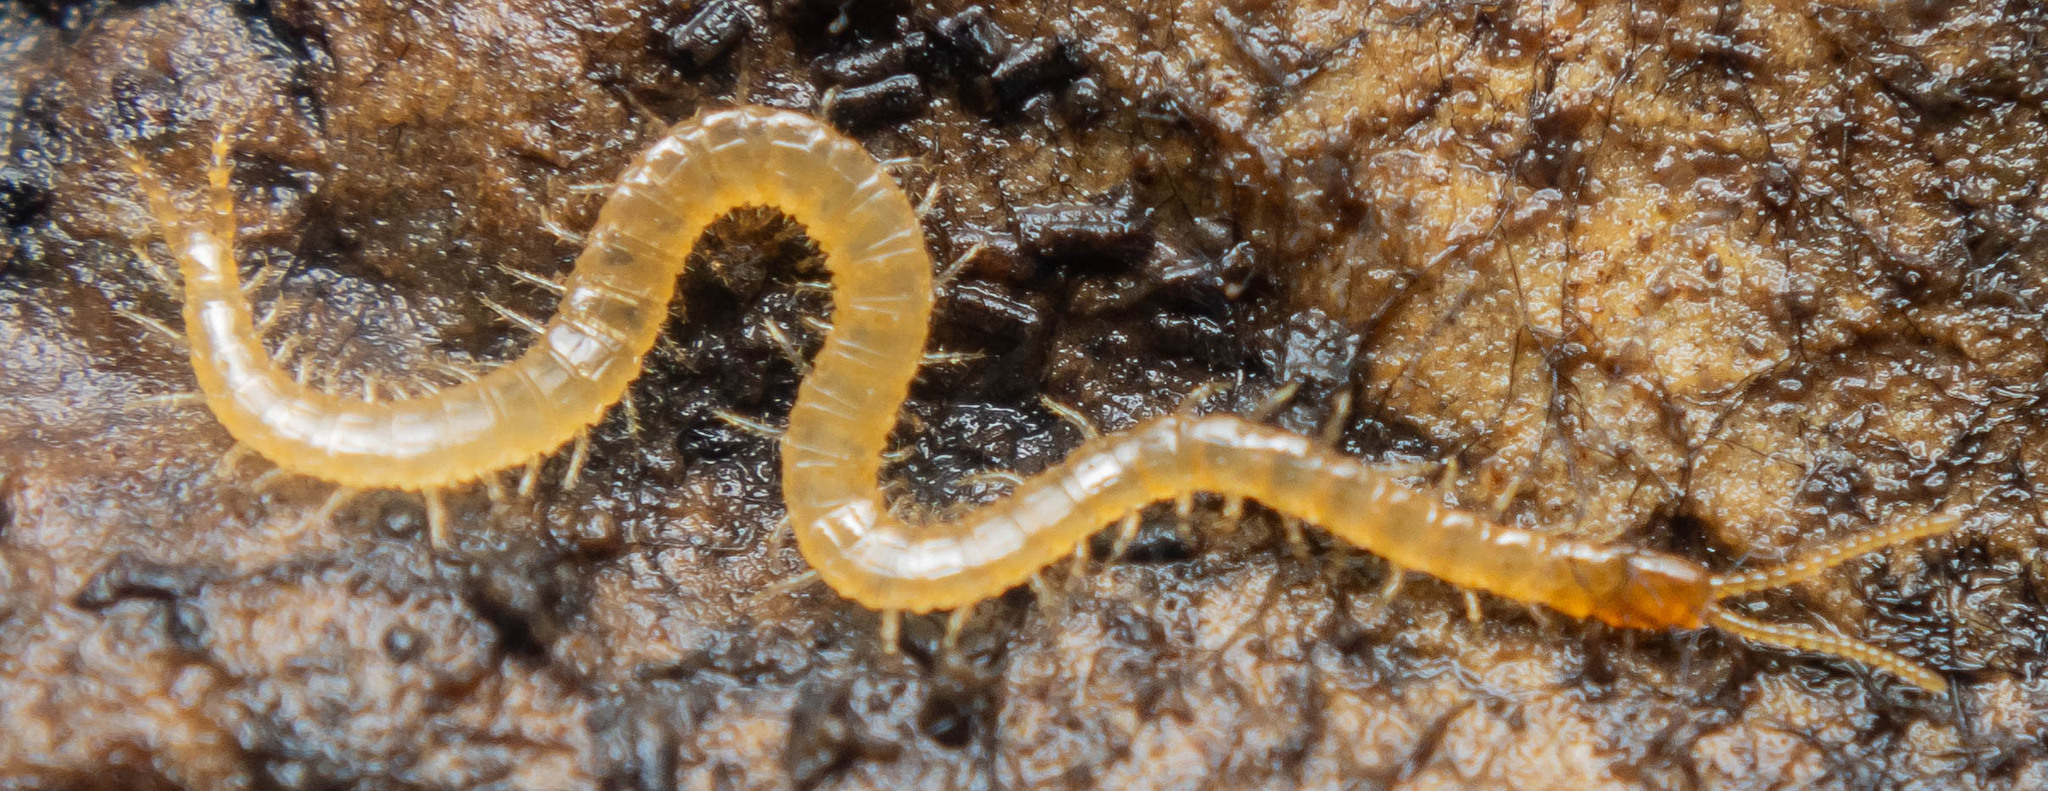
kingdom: Animalia
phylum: Arthropoda
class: Chilopoda
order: Geophilomorpha
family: Schendylidae
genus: Schendyla
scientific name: Schendyla nemorensis
